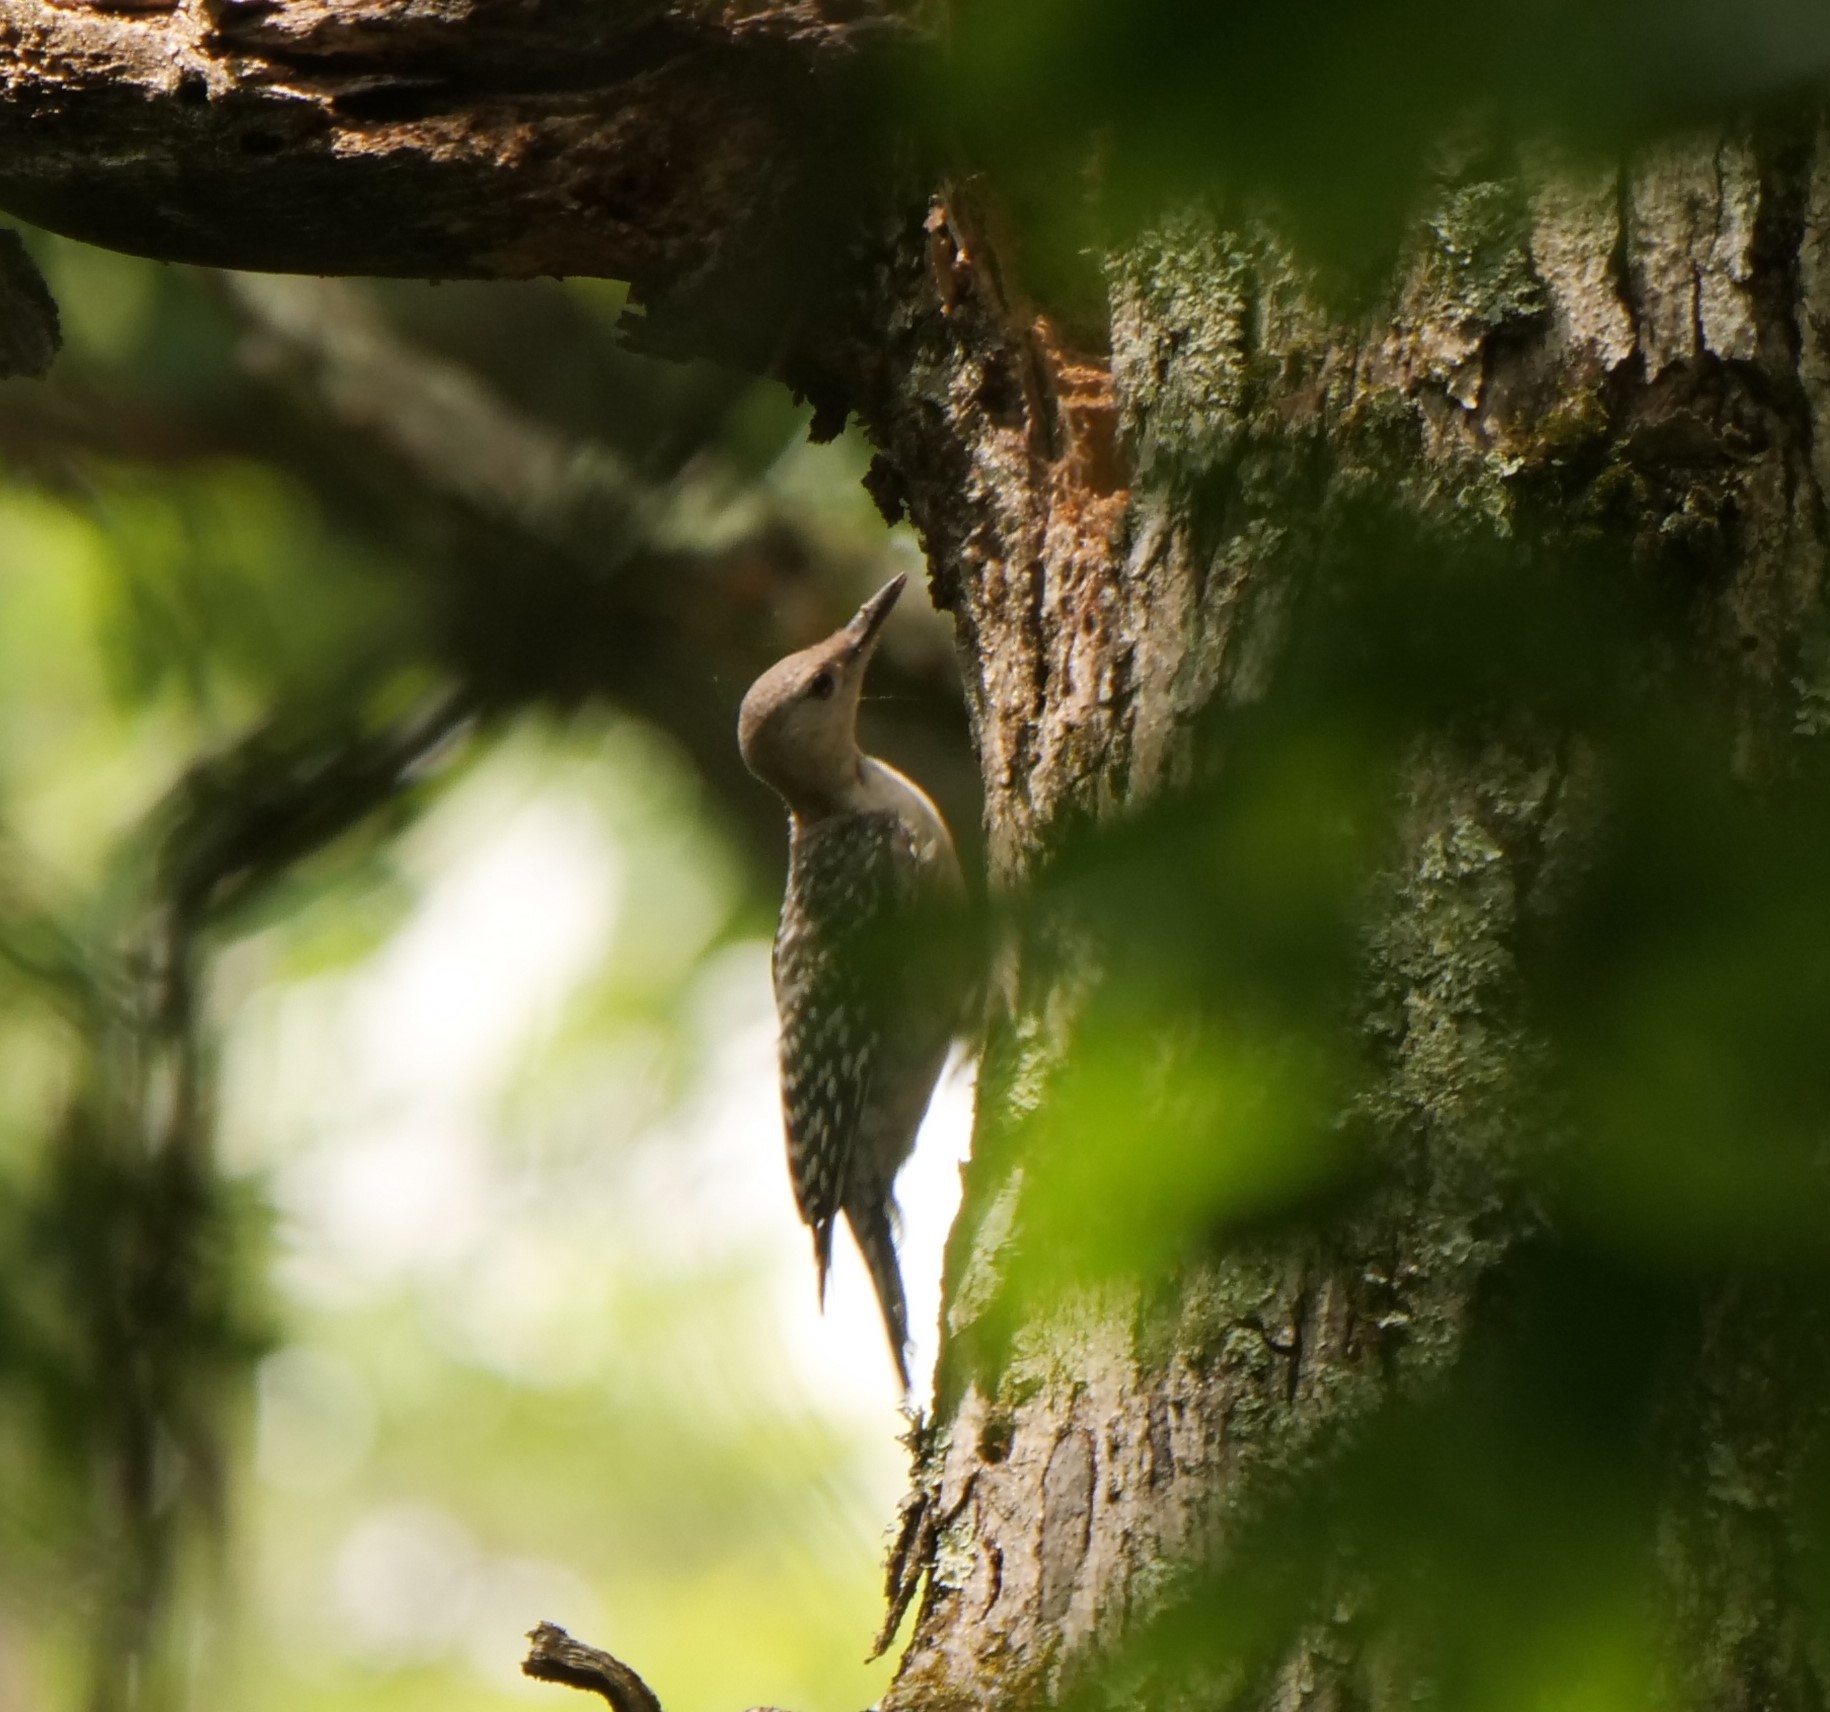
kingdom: Animalia
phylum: Chordata
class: Aves
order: Piciformes
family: Picidae
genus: Melanerpes
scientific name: Melanerpes carolinus
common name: Red-bellied woodpecker
